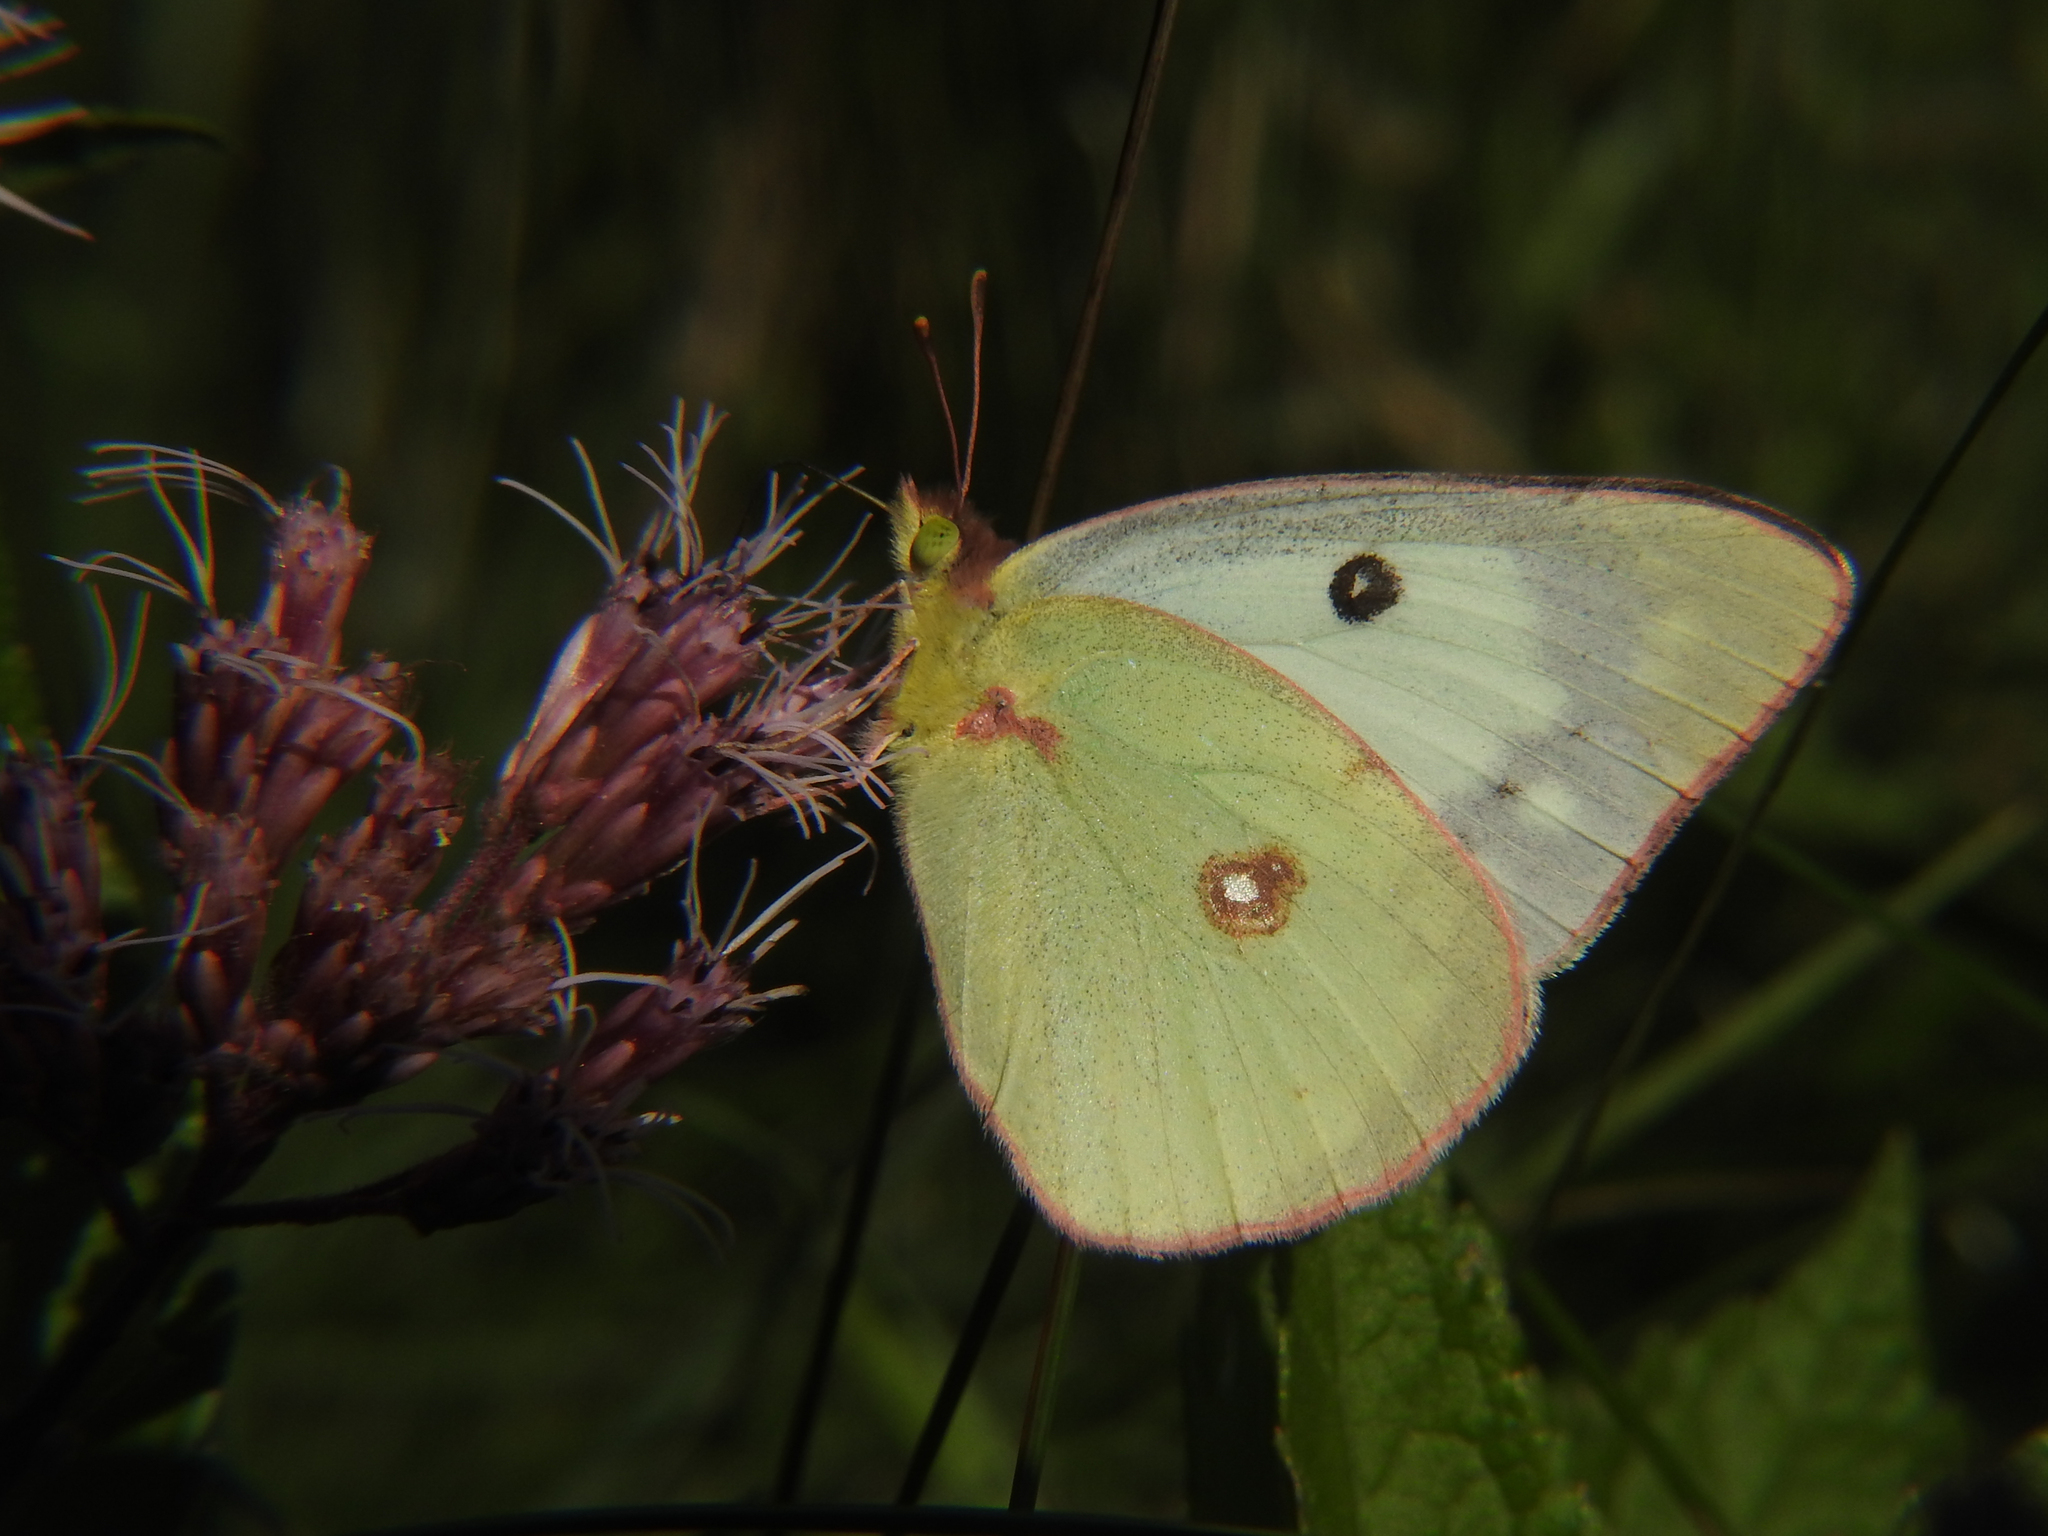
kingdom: Animalia
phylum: Arthropoda
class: Insecta
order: Lepidoptera
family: Pieridae
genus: Colias
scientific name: Colias philodice
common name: Clouded sulphur
